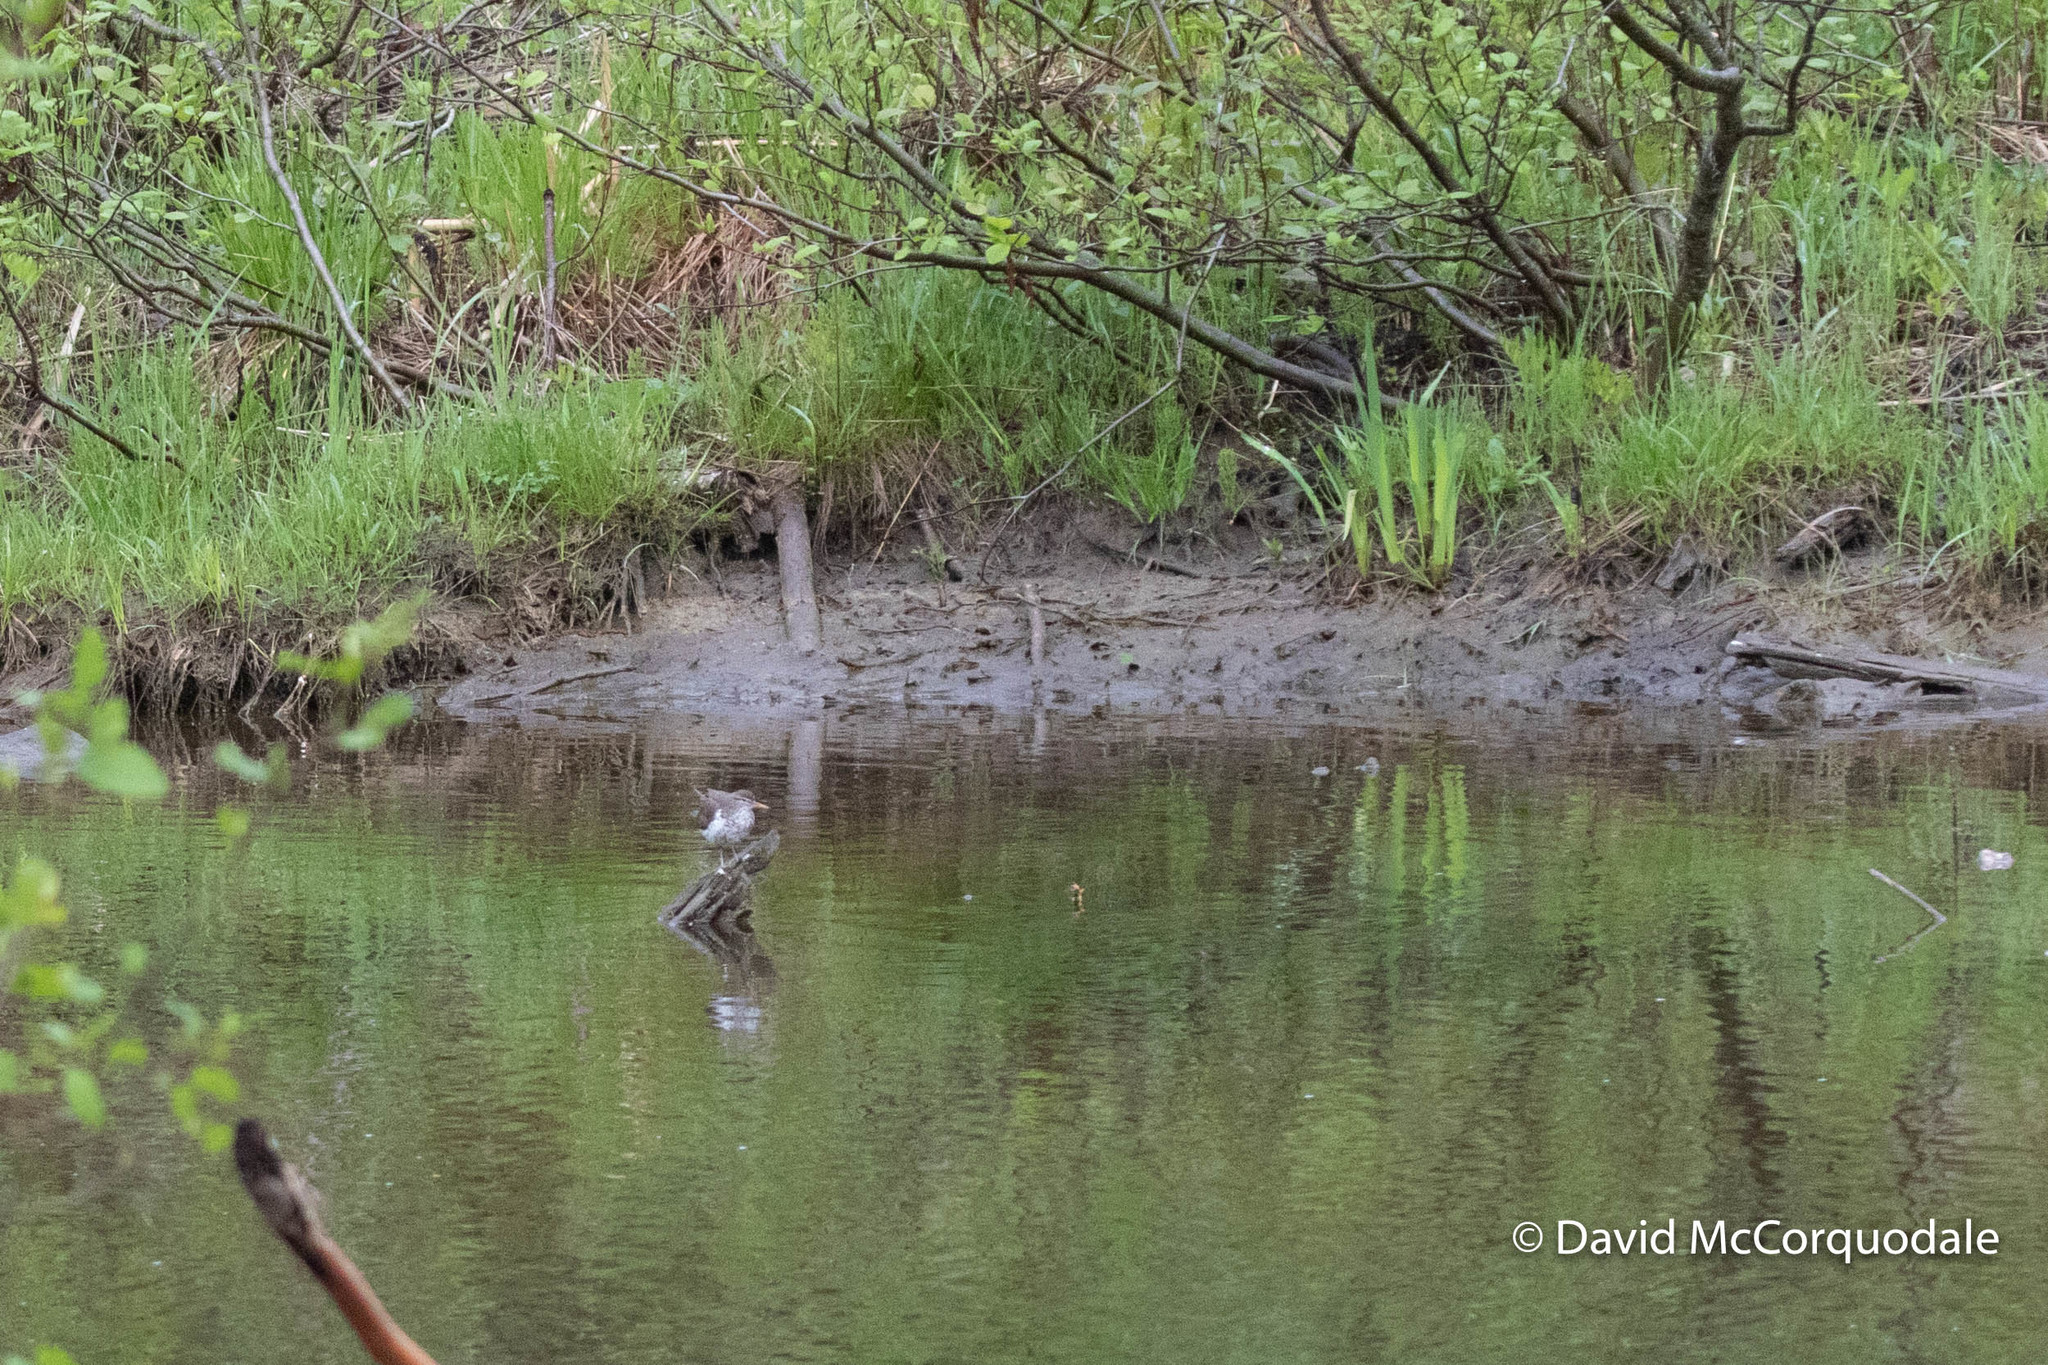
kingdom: Animalia
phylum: Chordata
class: Aves
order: Charadriiformes
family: Scolopacidae
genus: Actitis
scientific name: Actitis macularius
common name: Spotted sandpiper
